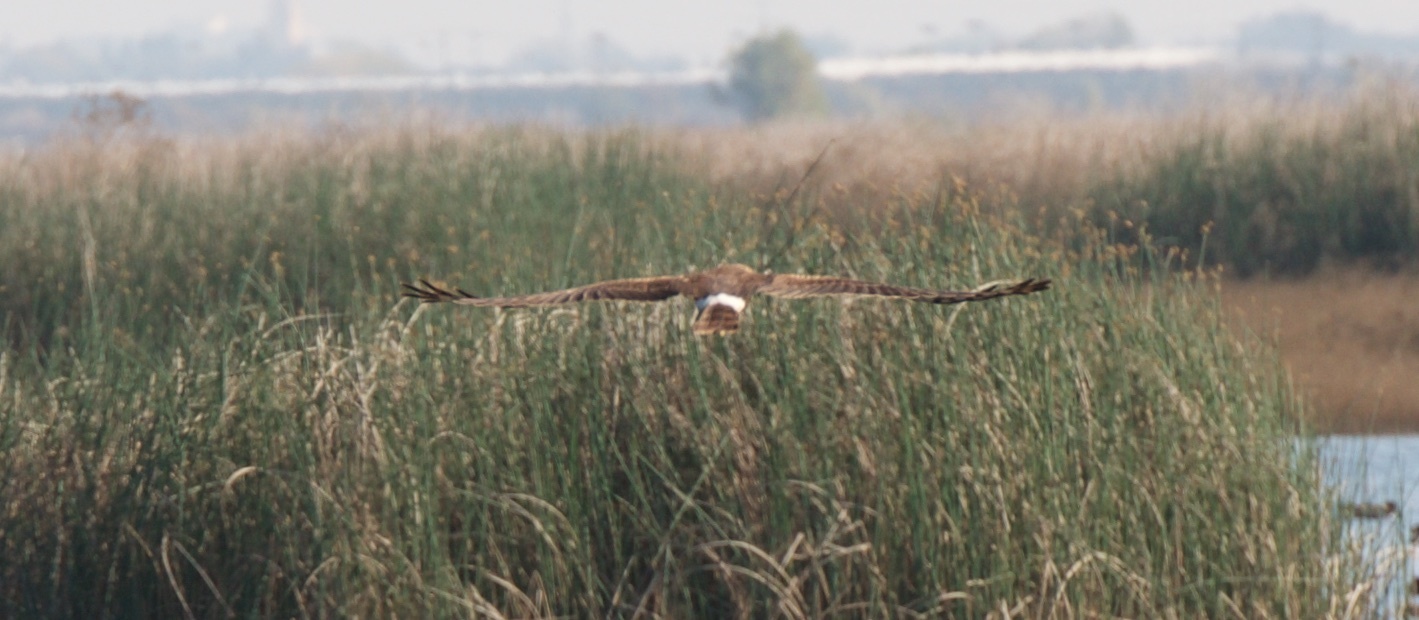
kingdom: Animalia
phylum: Chordata
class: Aves
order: Accipitriformes
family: Accipitridae
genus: Circus
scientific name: Circus cyaneus
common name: Hen harrier
